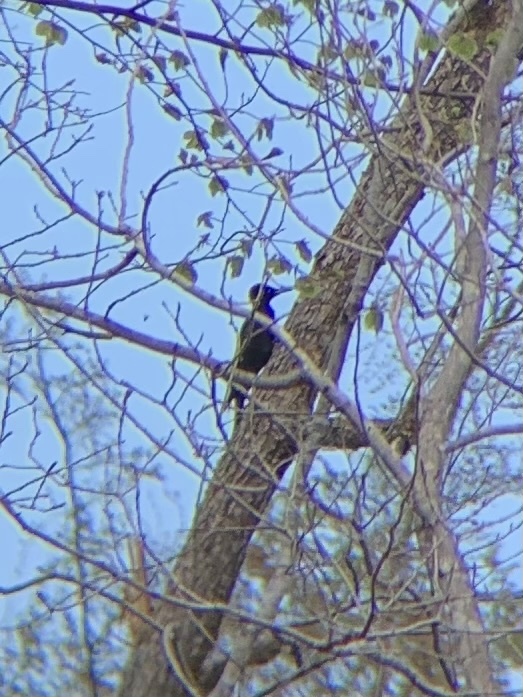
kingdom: Animalia
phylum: Chordata
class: Aves
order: Piciformes
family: Picidae
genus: Dryocopus
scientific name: Dryocopus martius
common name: Black woodpecker
